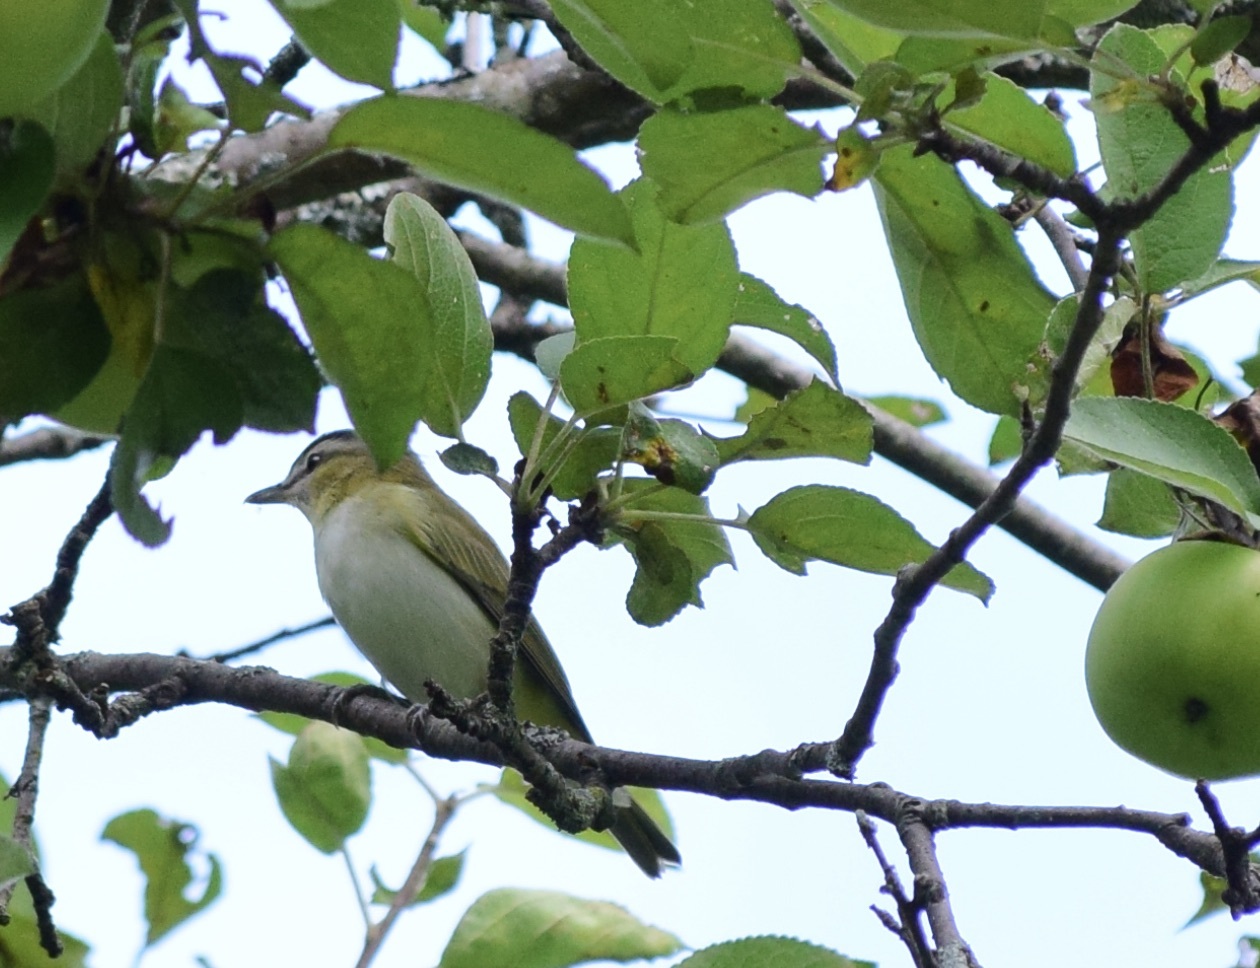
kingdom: Animalia
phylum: Chordata
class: Aves
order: Passeriformes
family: Vireonidae
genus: Vireo
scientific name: Vireo olivaceus
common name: Red-eyed vireo
